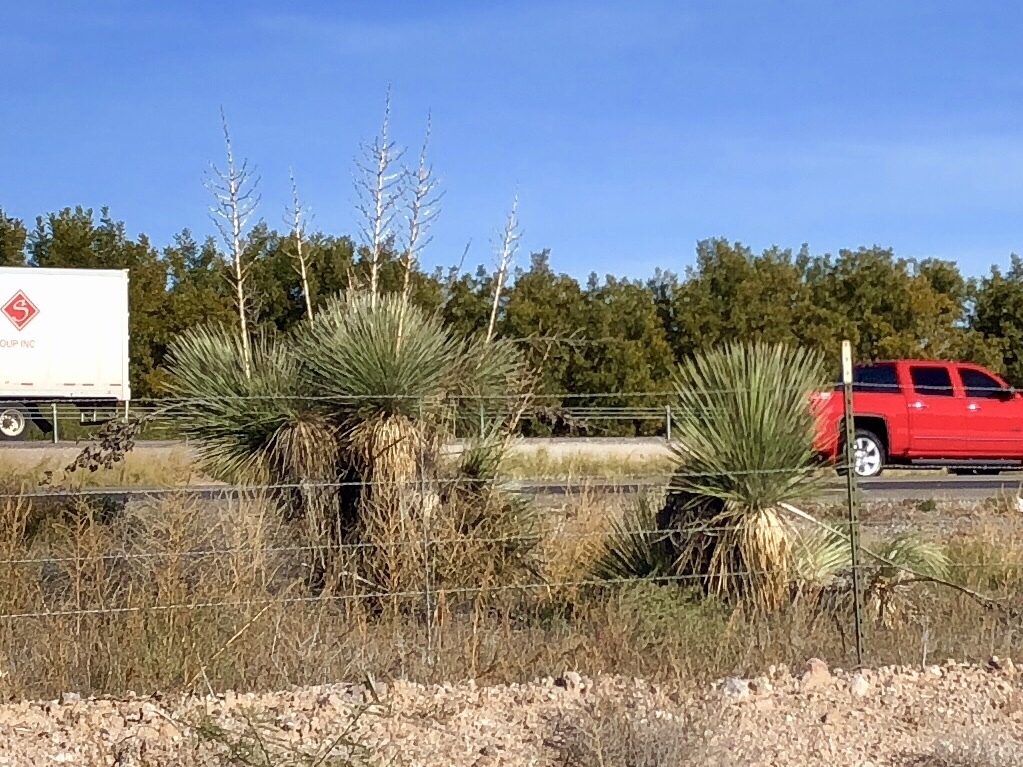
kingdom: Plantae
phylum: Tracheophyta
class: Liliopsida
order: Asparagales
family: Asparagaceae
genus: Yucca
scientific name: Yucca elata
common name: Palmella
